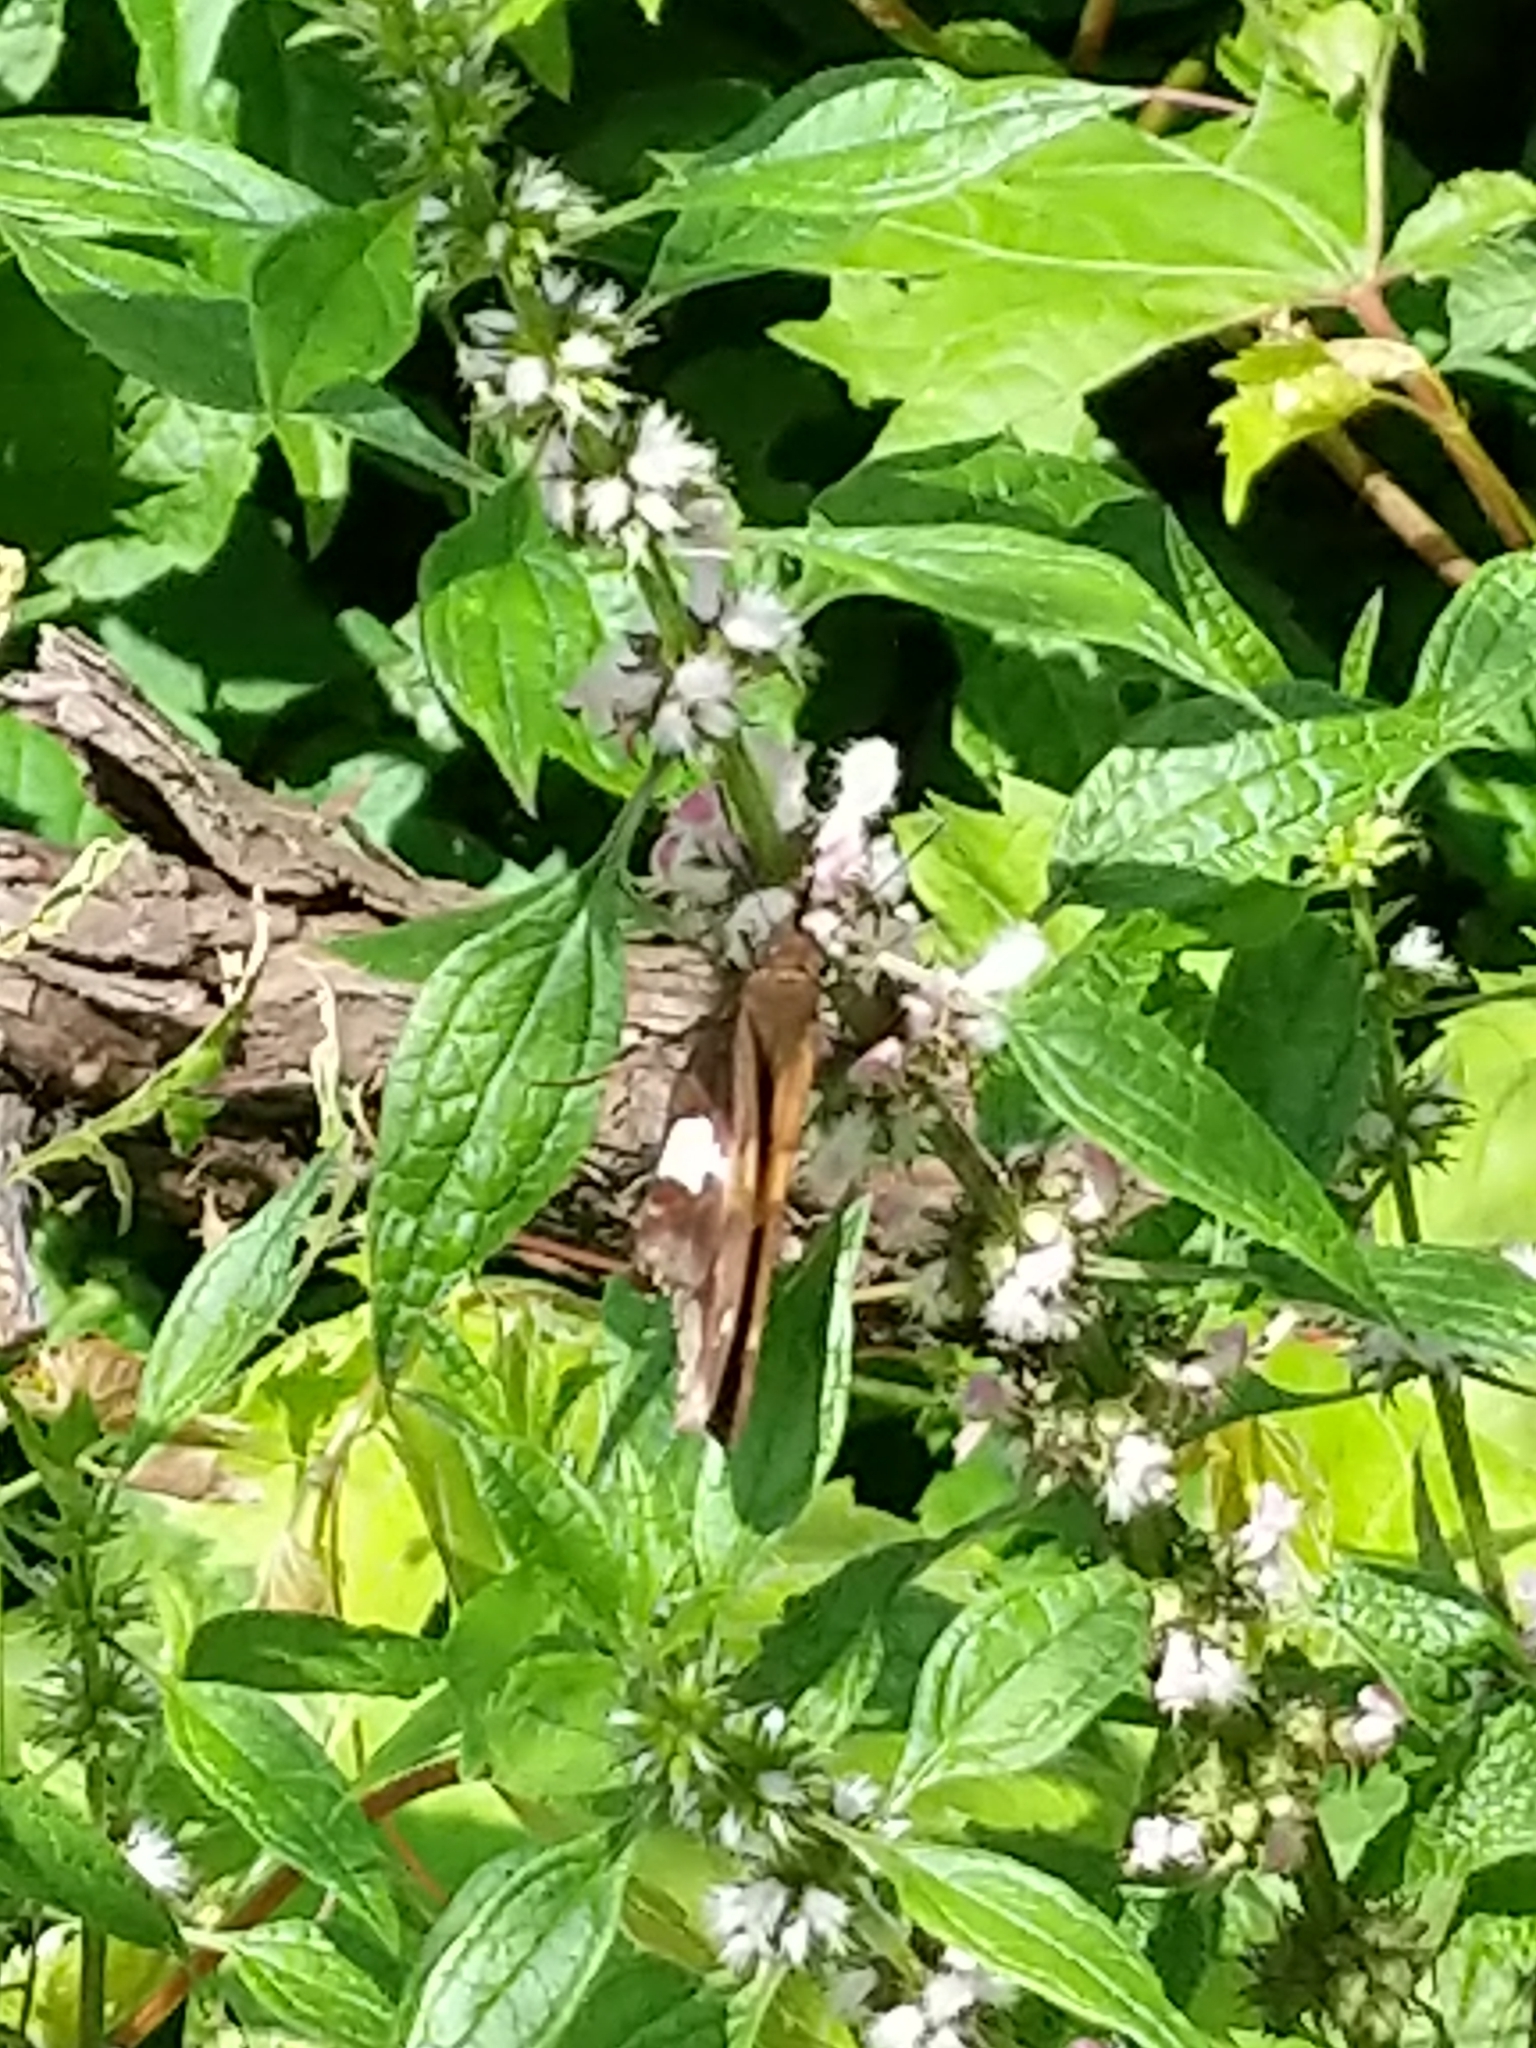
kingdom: Animalia
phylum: Arthropoda
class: Insecta
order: Lepidoptera
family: Hesperiidae
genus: Epargyreus
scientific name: Epargyreus clarus
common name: Silver-spotted skipper
